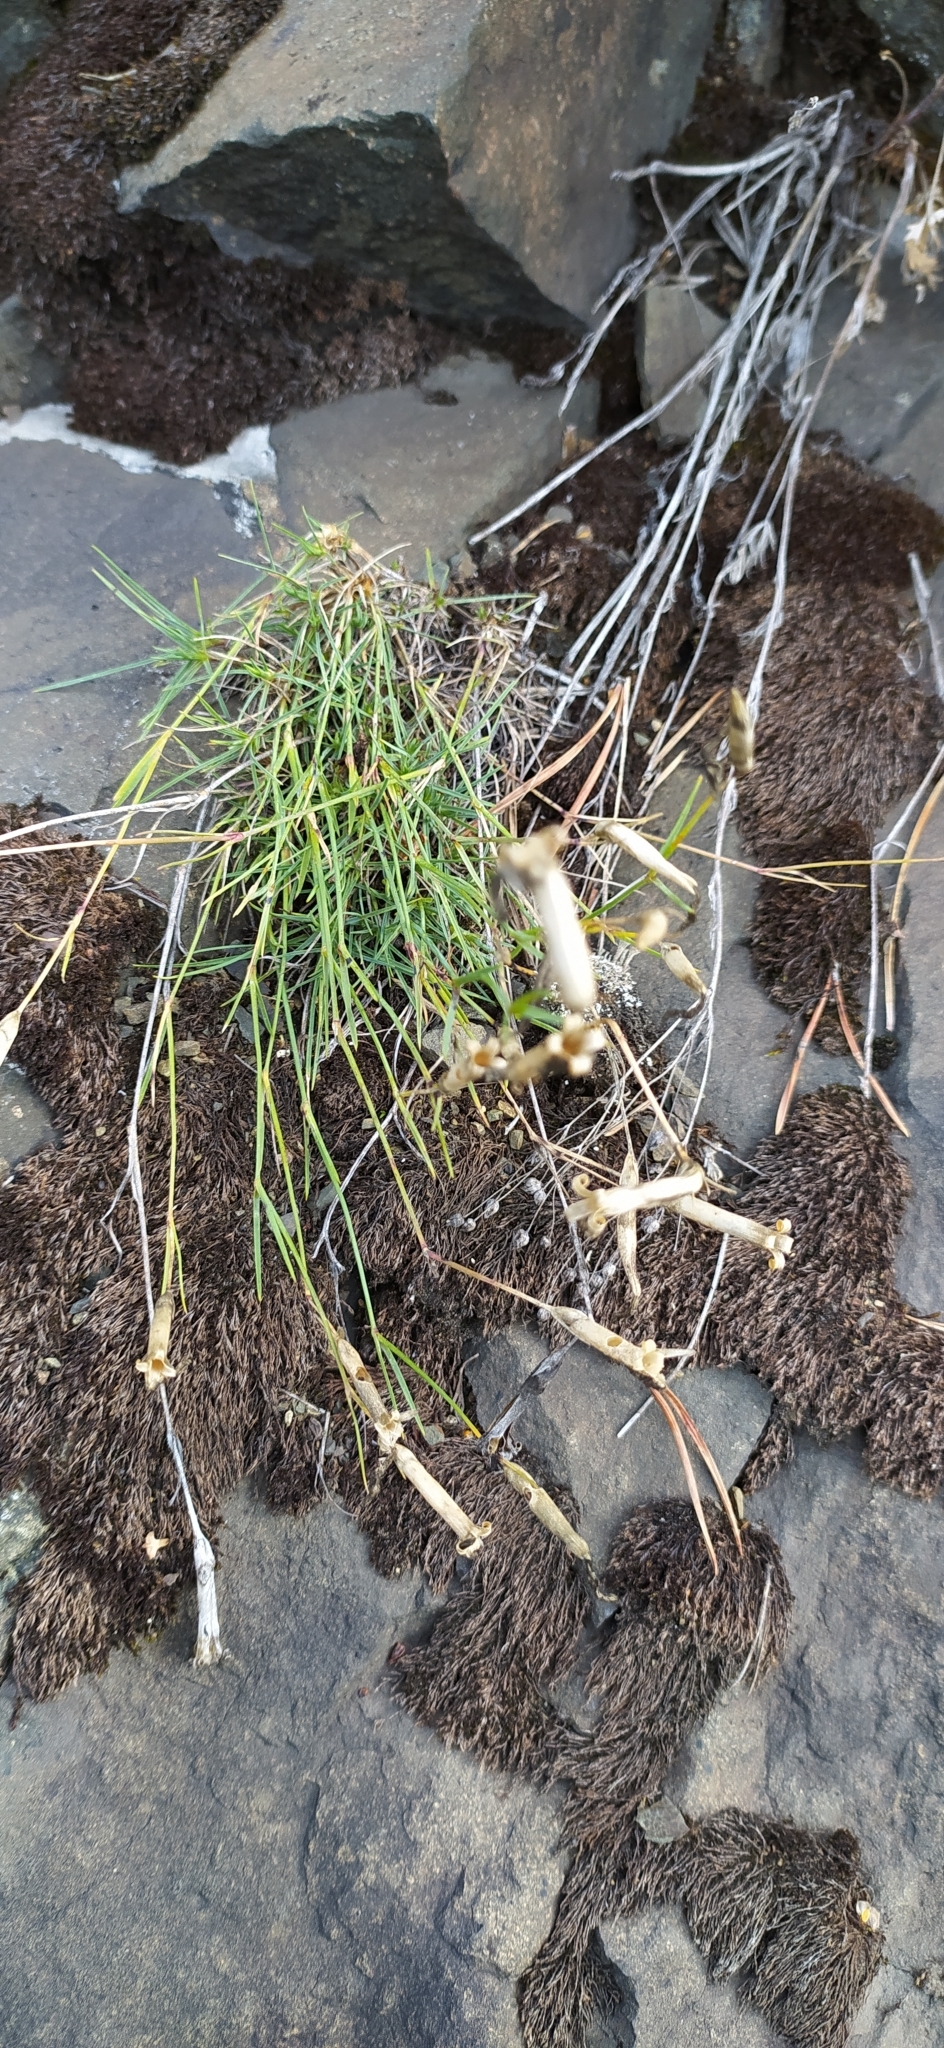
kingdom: Plantae
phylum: Tracheophyta
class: Magnoliopsida
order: Caryophyllales
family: Caryophyllaceae
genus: Dianthus
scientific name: Dianthus acicularis
